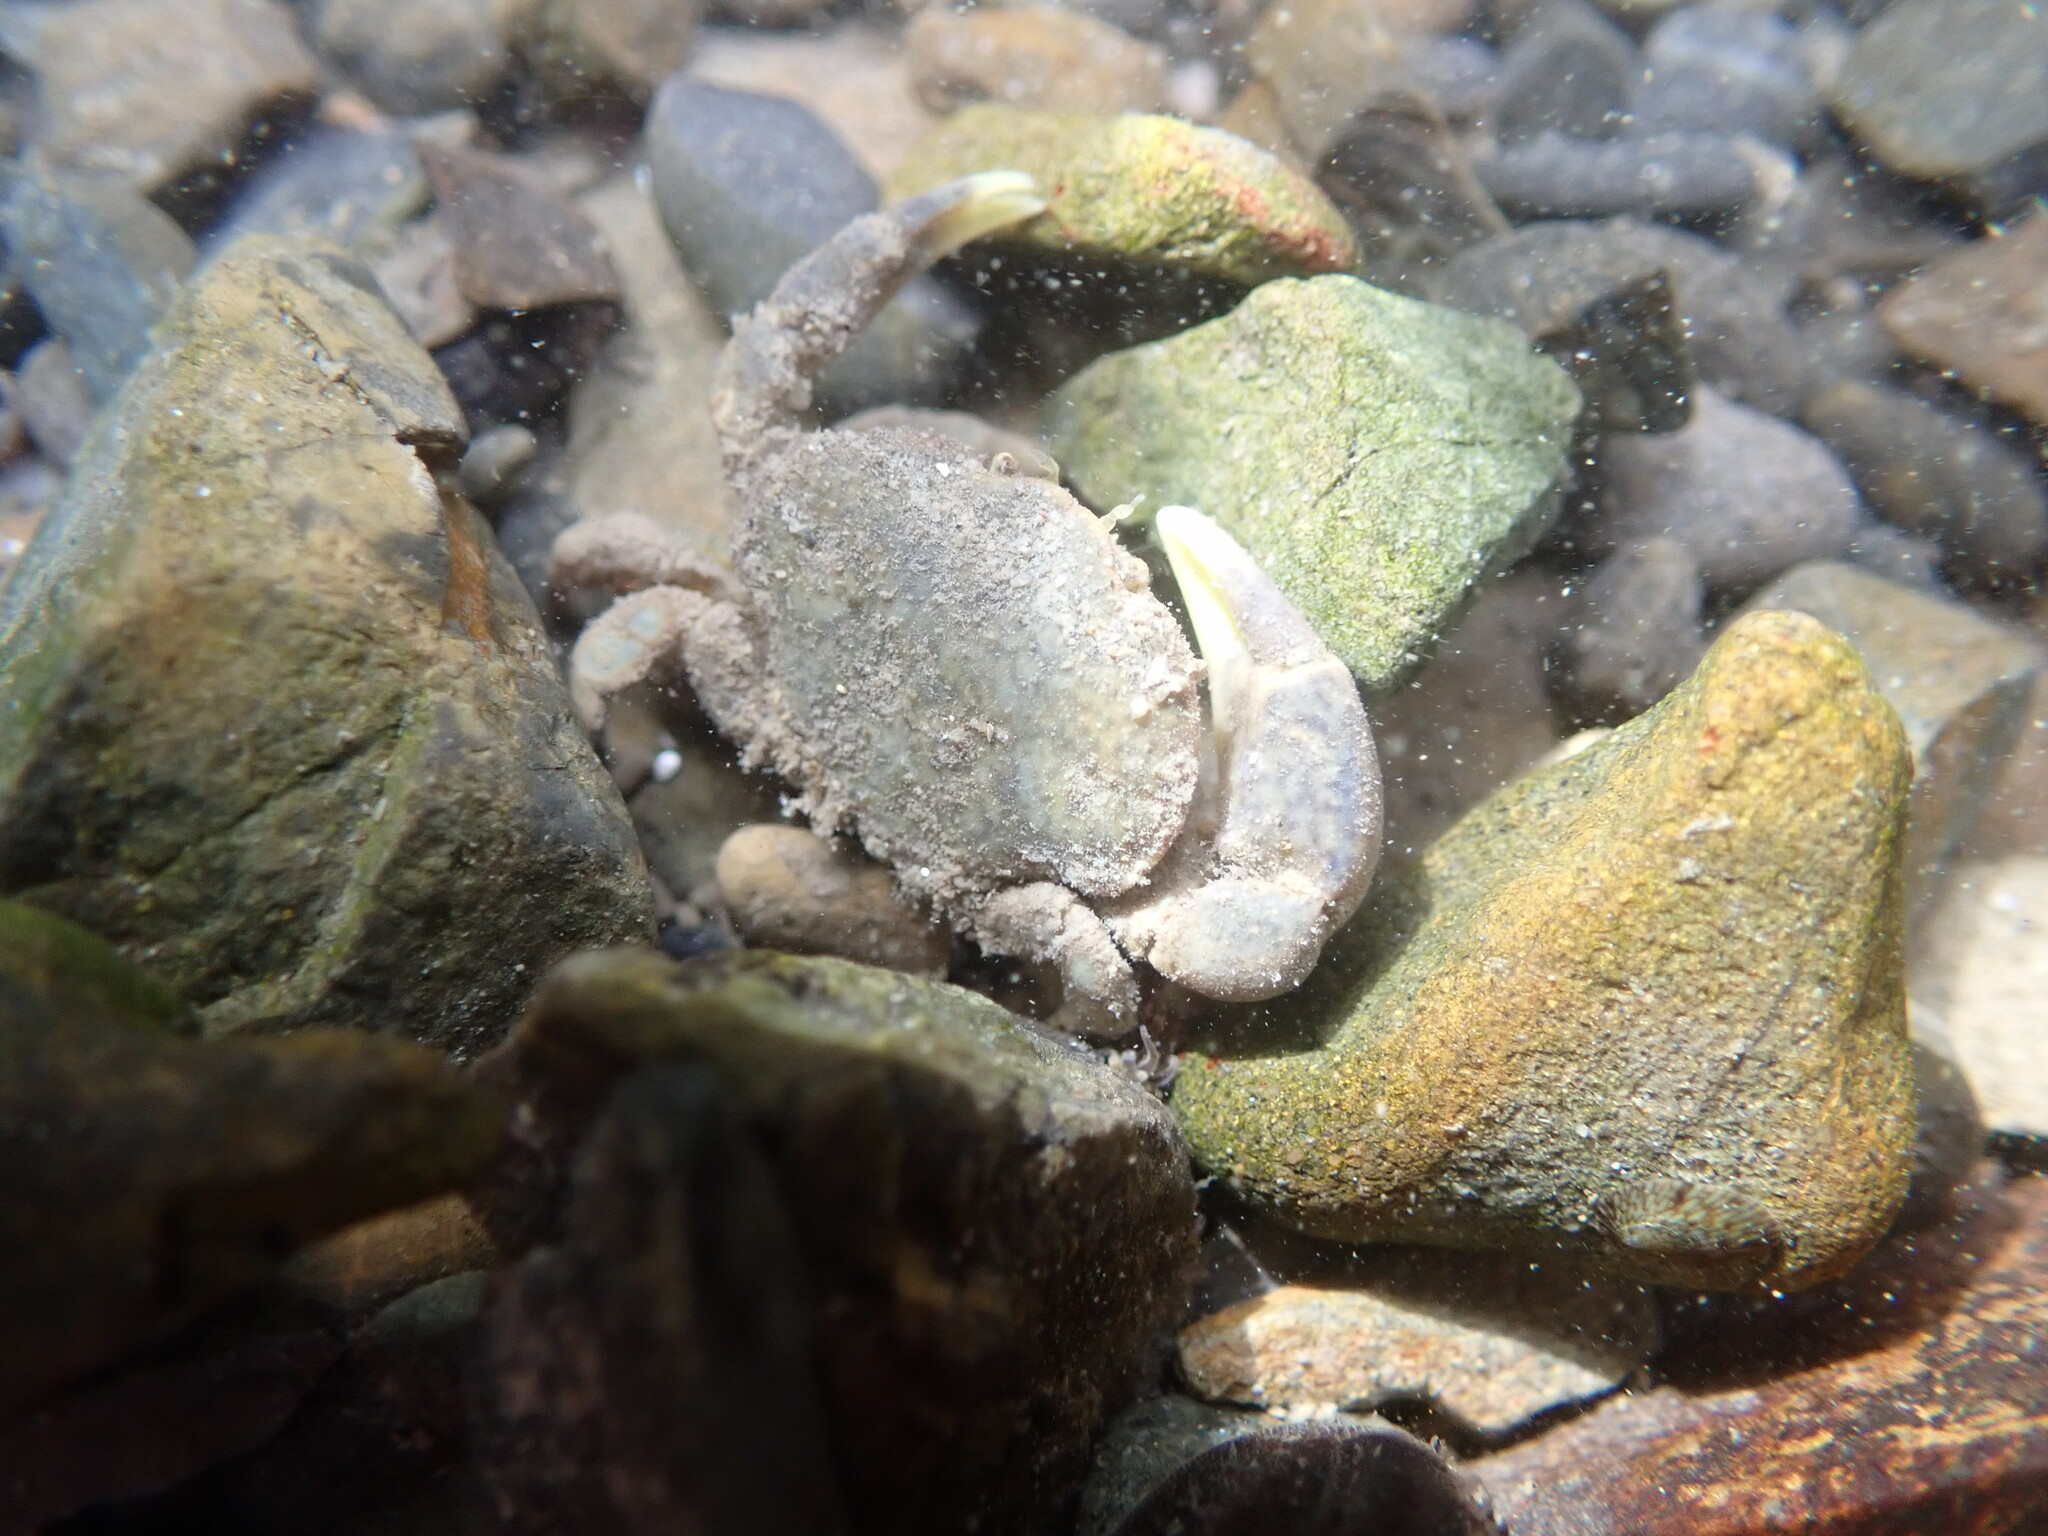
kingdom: Animalia
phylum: Arthropoda
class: Malacostraca
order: Decapoda
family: Heteroziidae
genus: Heterozius
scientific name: Heterozius rotundifrons
